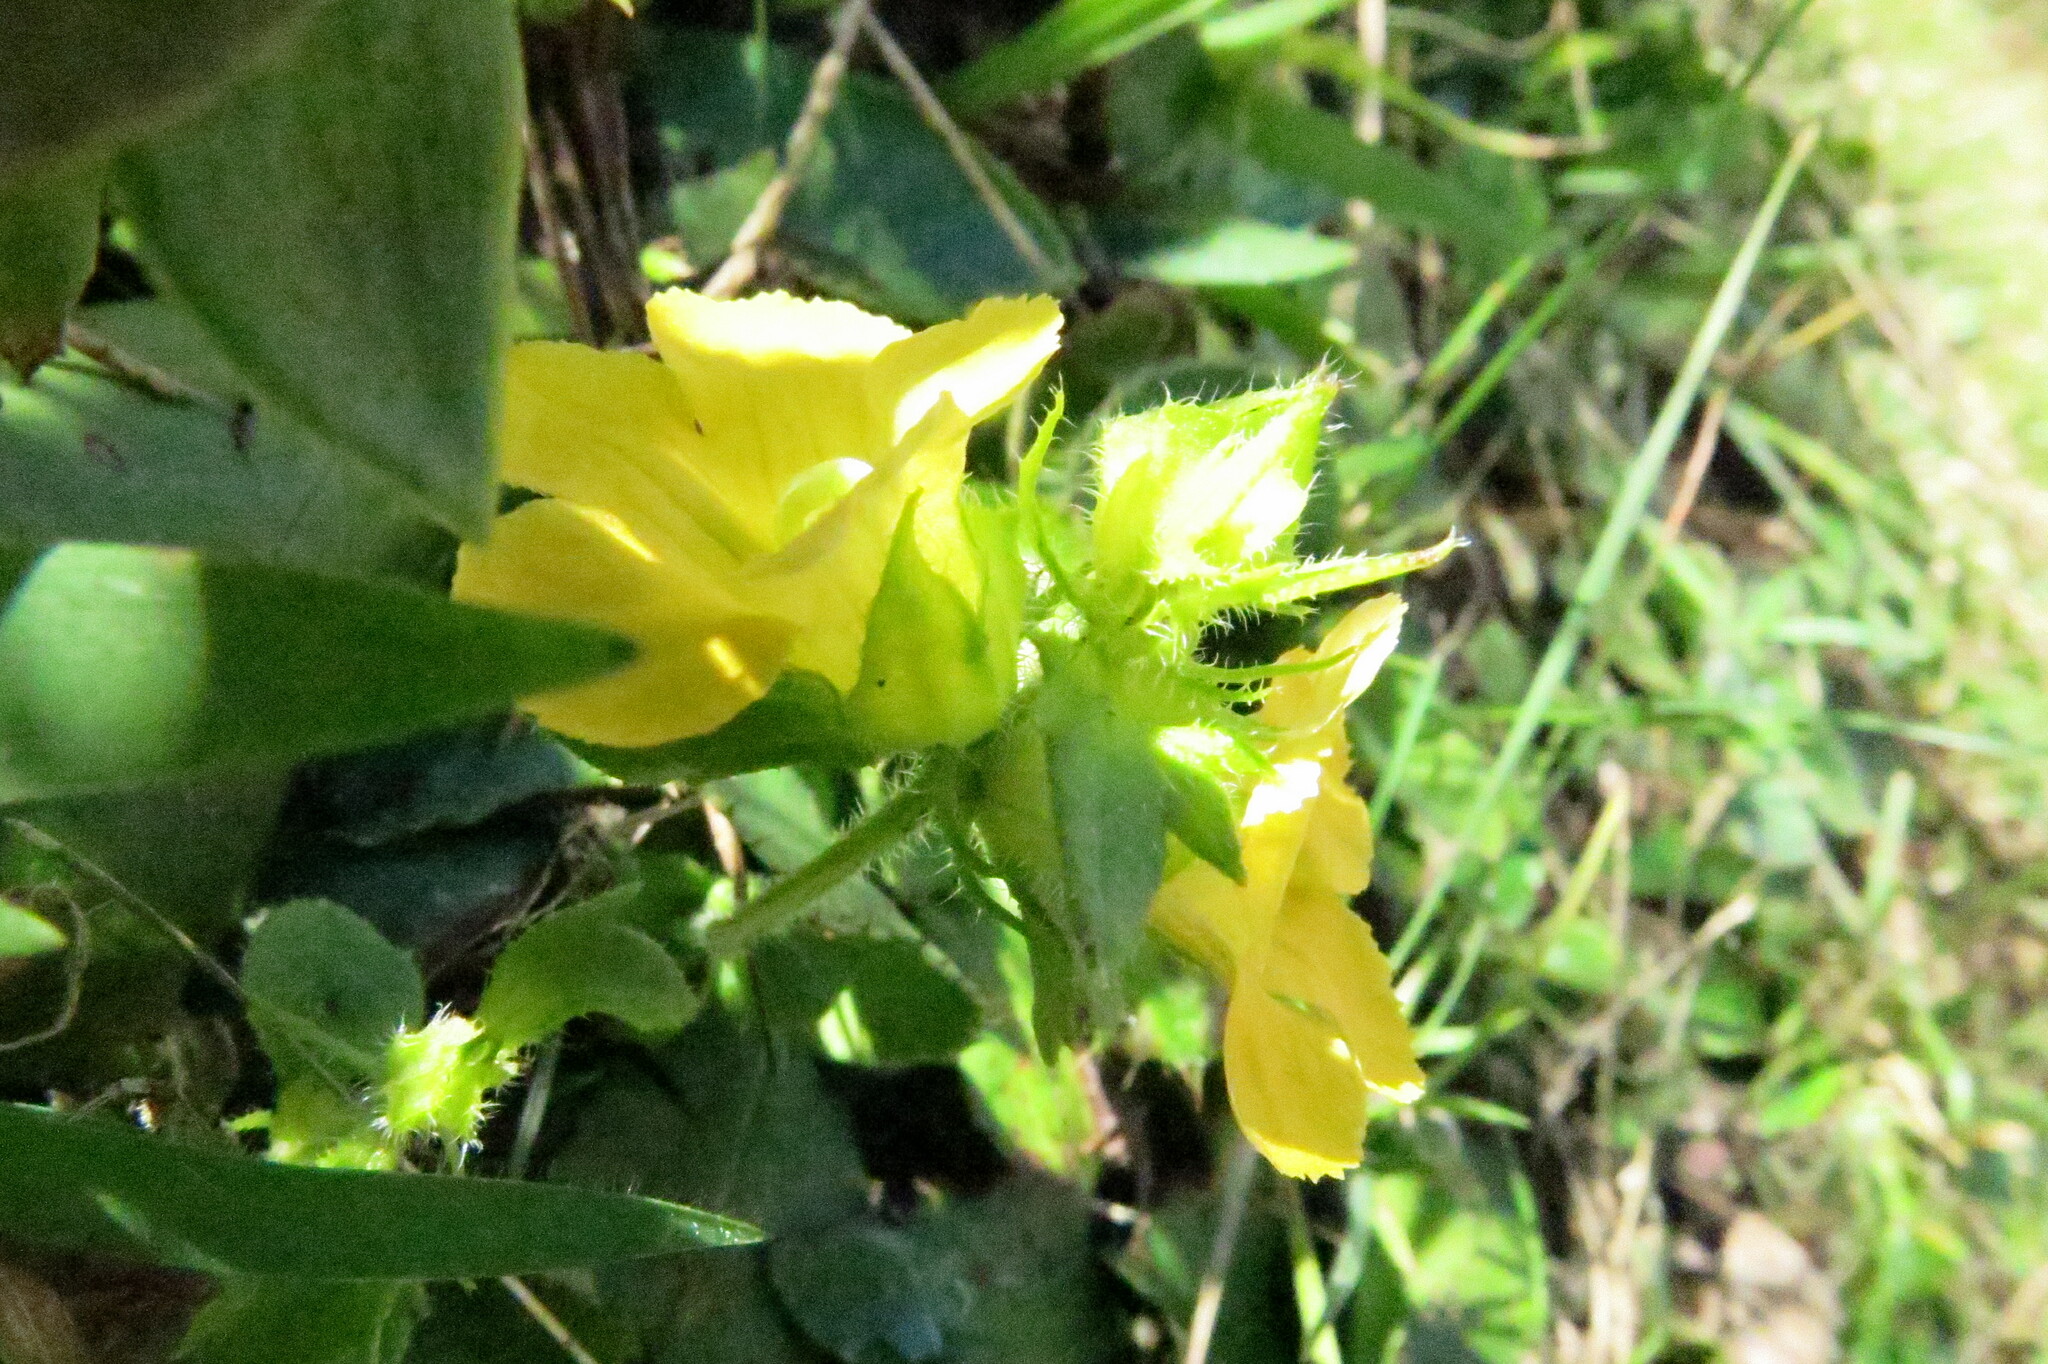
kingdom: Plantae
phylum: Tracheophyta
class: Magnoliopsida
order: Lamiales
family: Orobanchaceae
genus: Alectra
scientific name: Alectra sessiliflora
